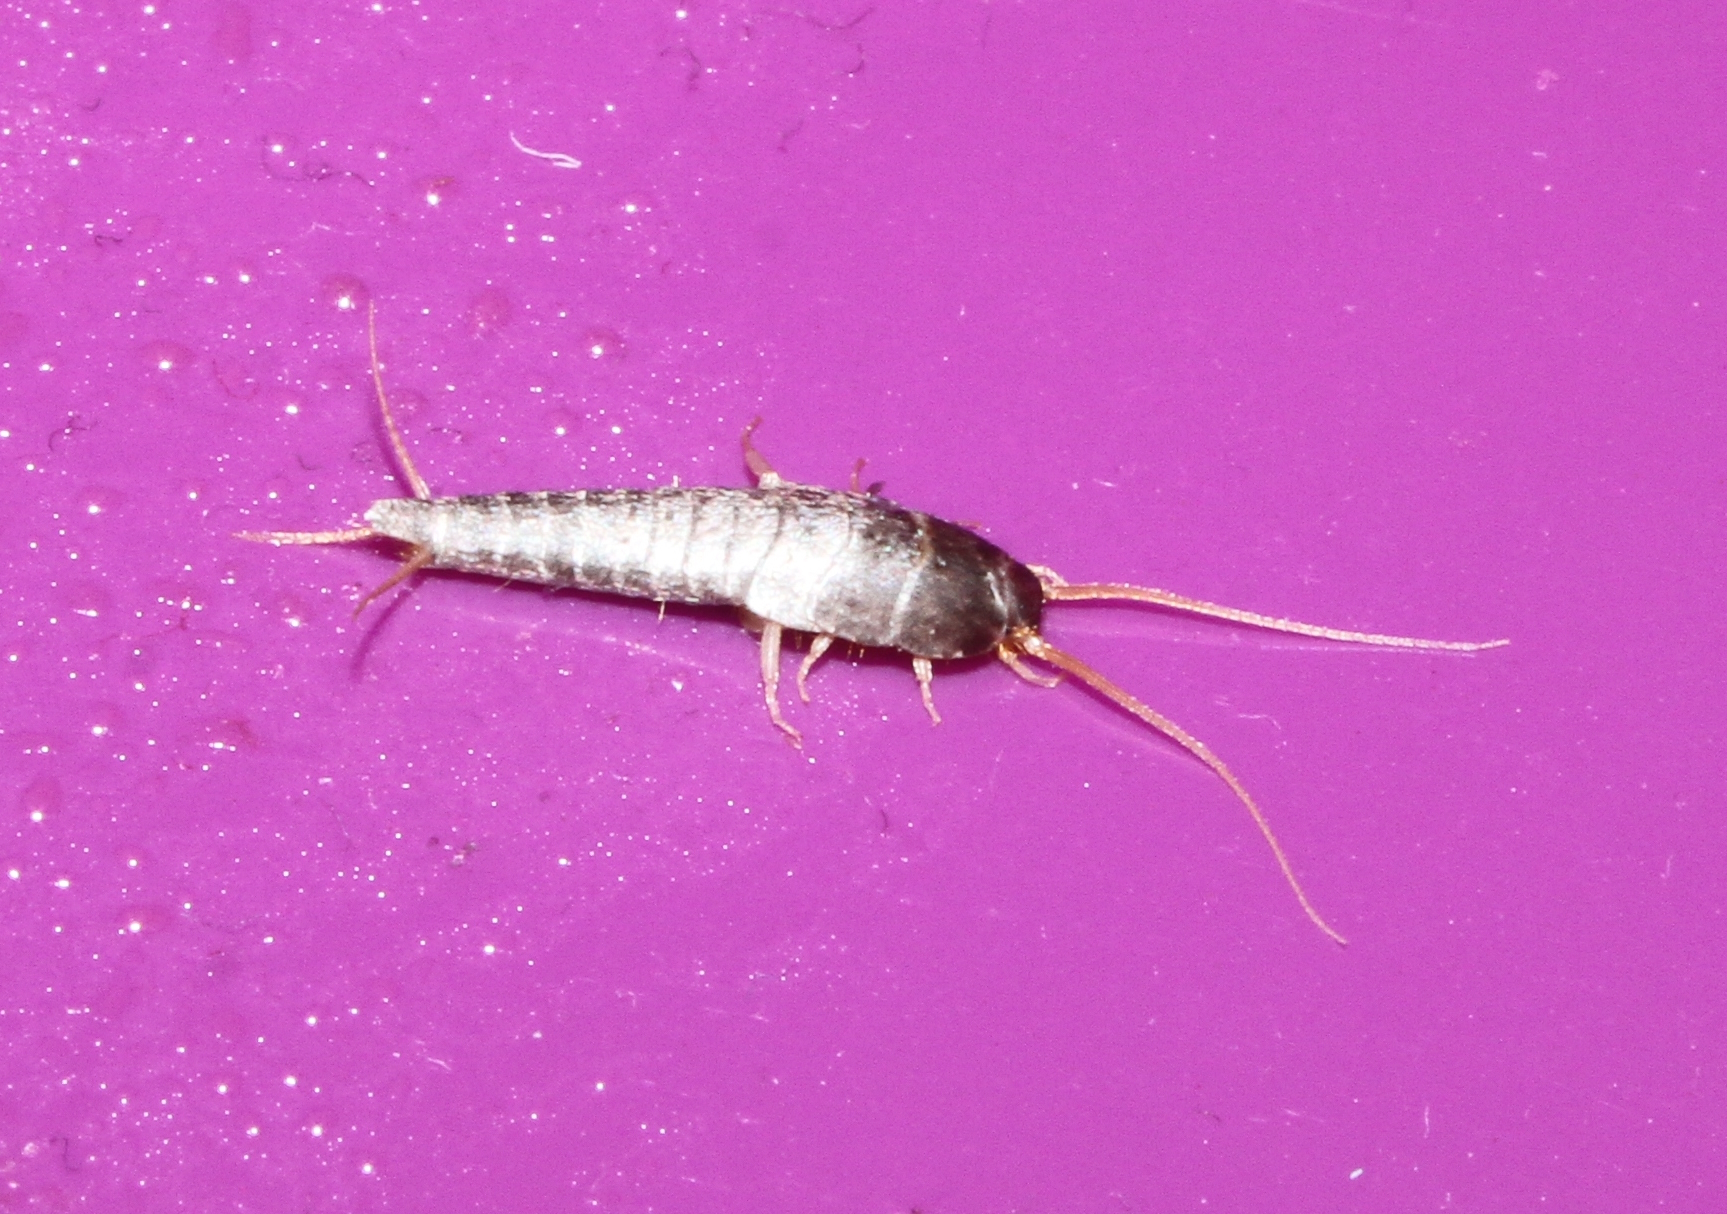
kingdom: Animalia
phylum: Arthropoda
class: Insecta
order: Zygentoma
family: Lepismatidae
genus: Lepisma
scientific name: Lepisma saccharinum
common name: Silverfish
